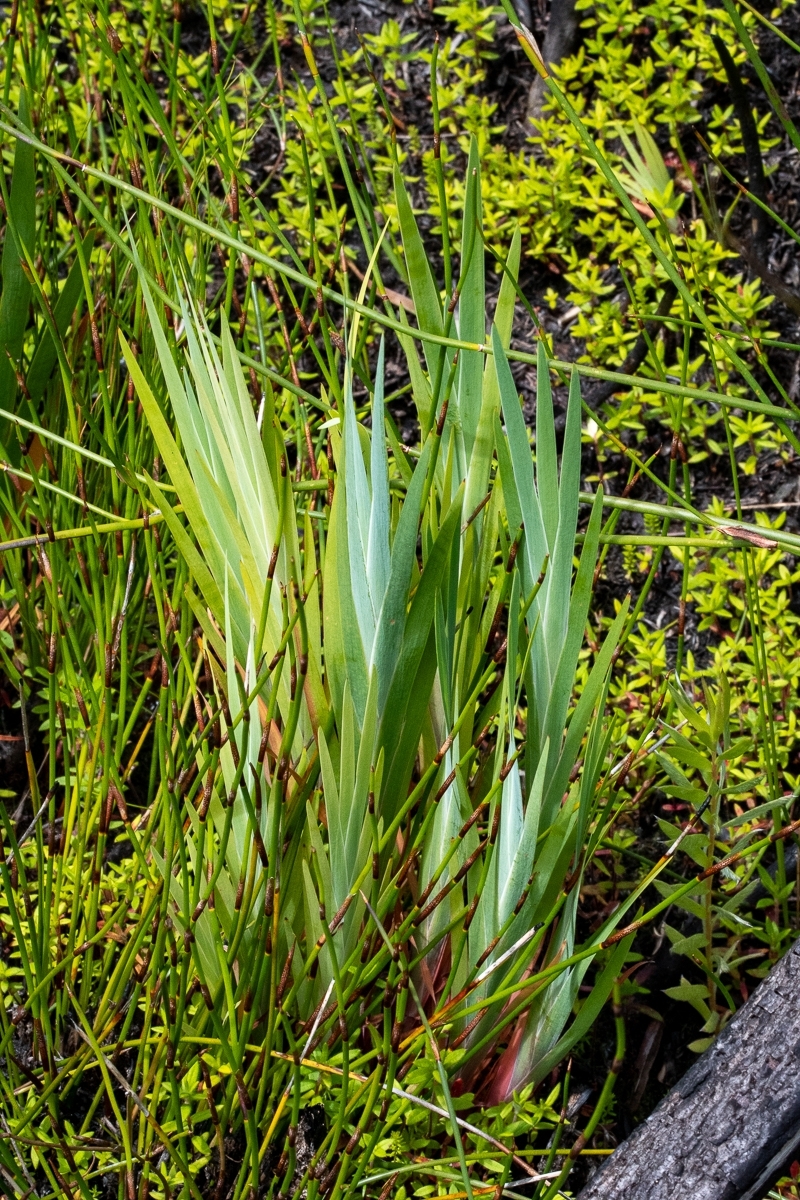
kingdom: Plantae
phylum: Tracheophyta
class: Liliopsida
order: Asparagales
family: Iridaceae
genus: Nivenia
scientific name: Nivenia stokoei
